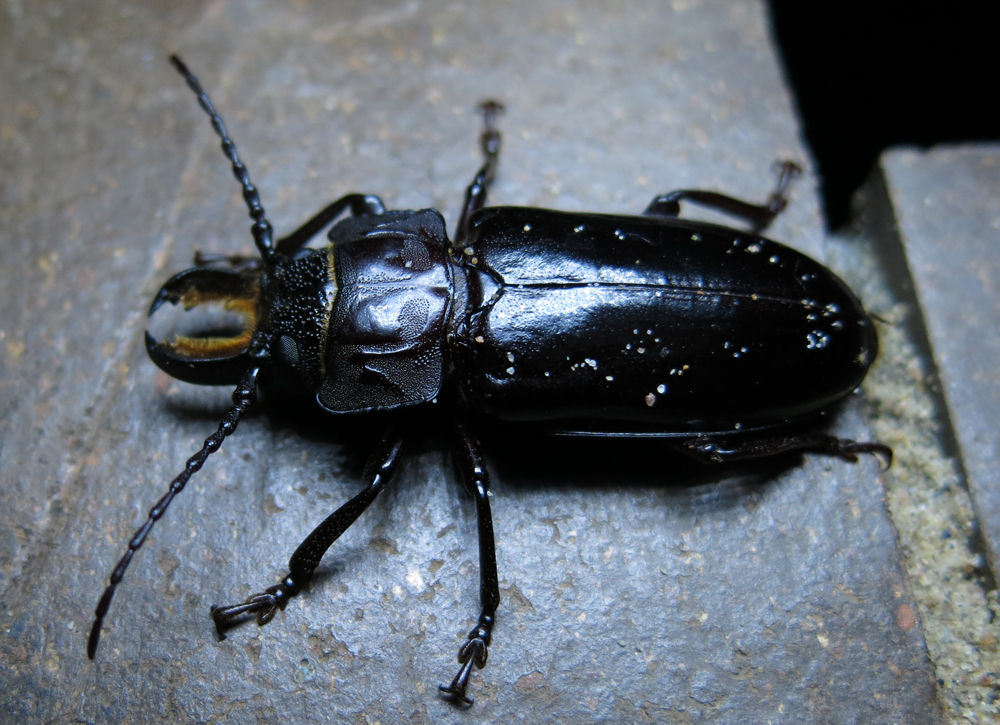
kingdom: Animalia
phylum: Arthropoda
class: Insecta
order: Coleoptera
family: Cerambycidae
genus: Mallodon
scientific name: Mallodon downesii
